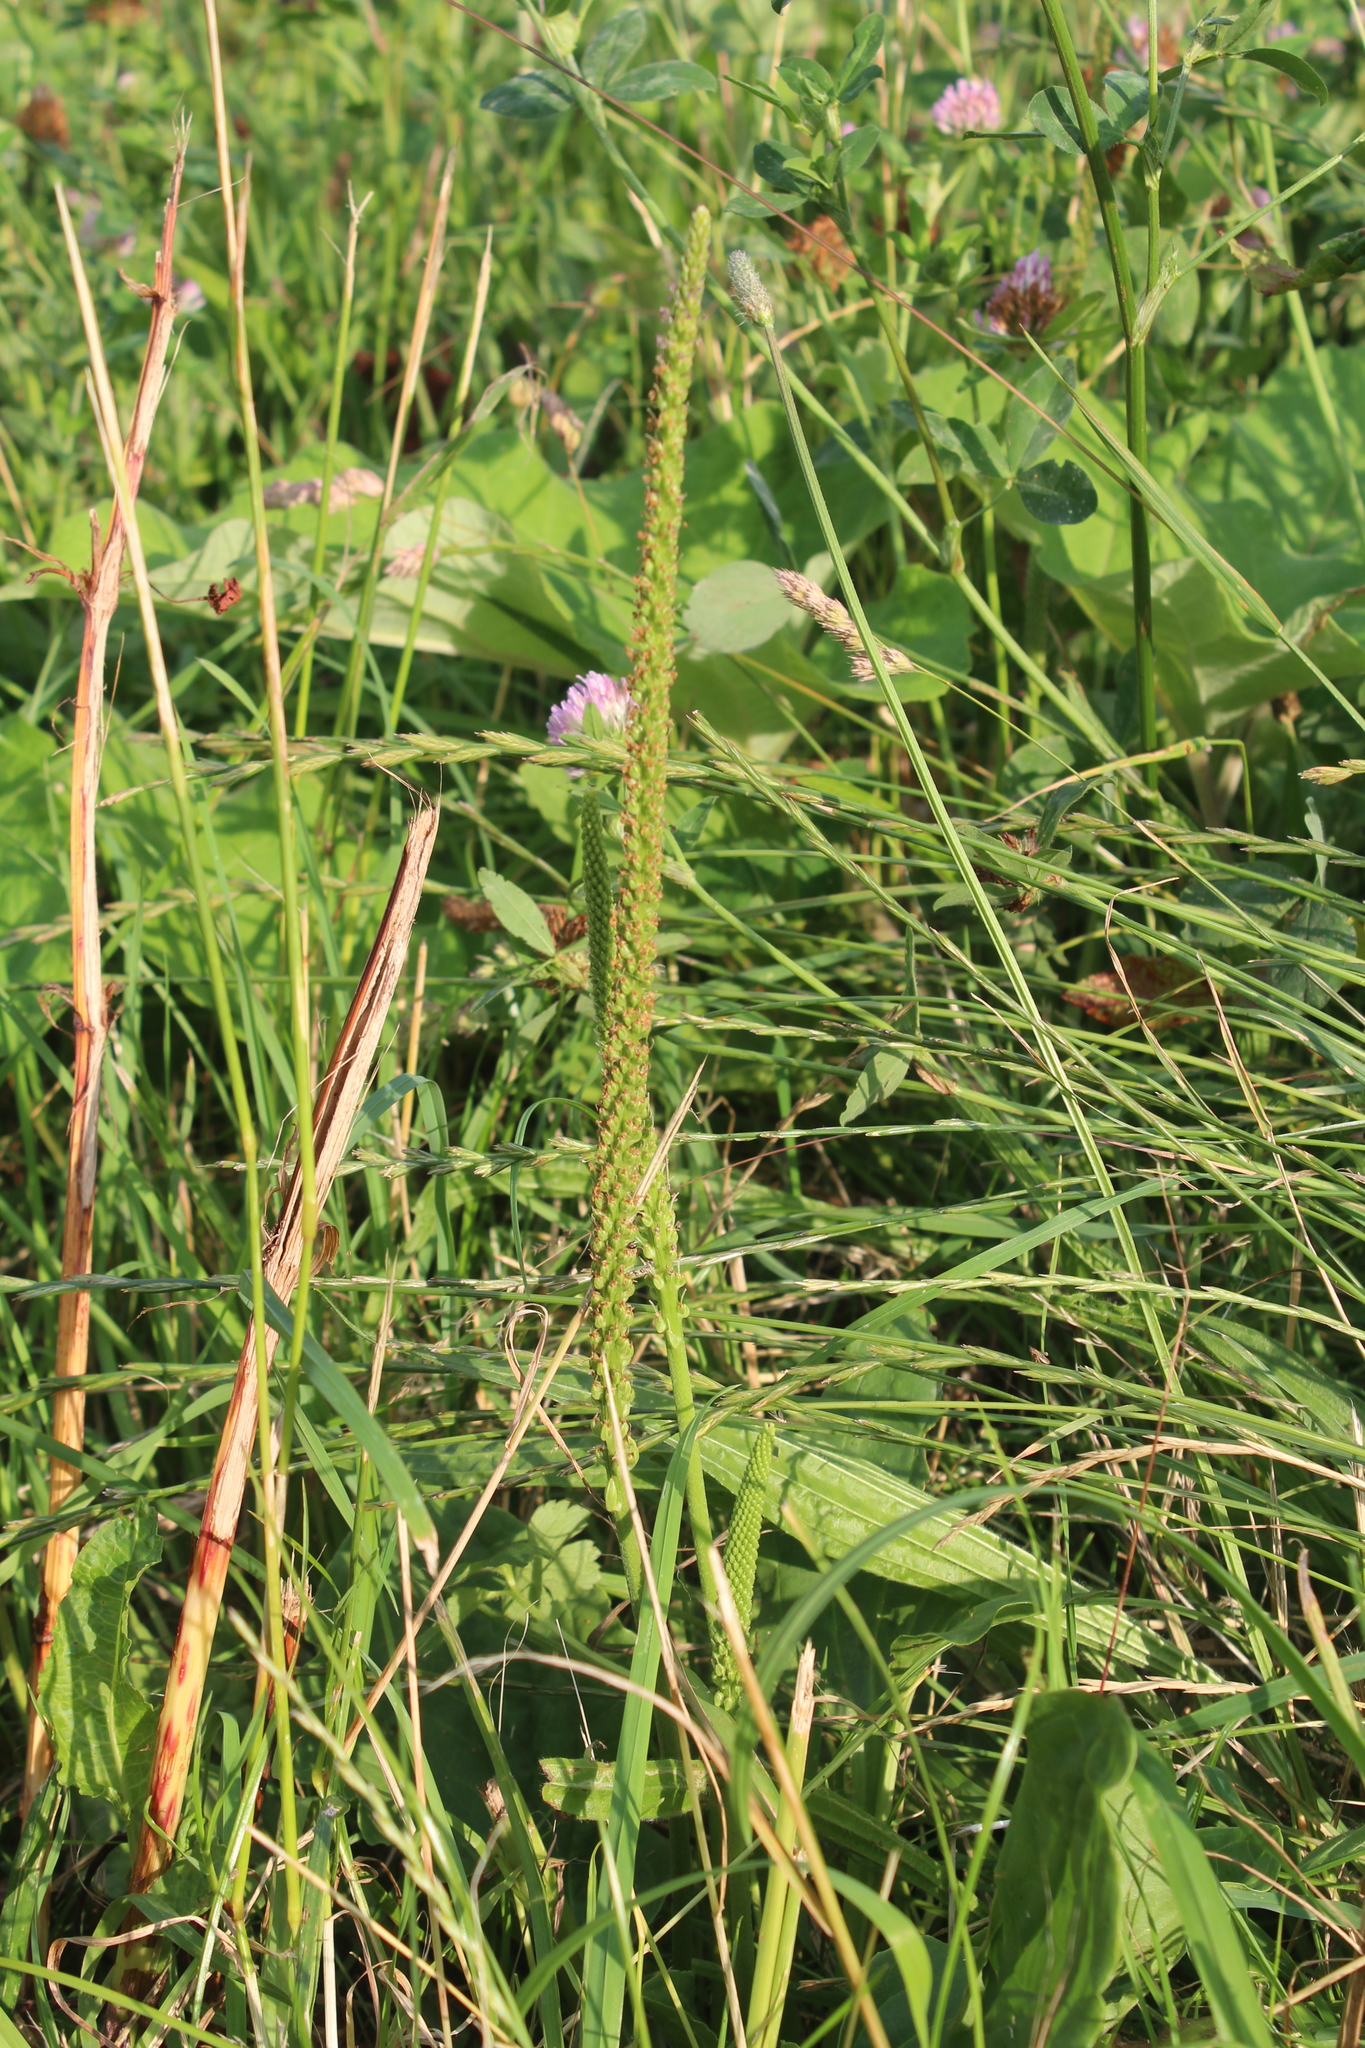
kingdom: Plantae
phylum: Tracheophyta
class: Magnoliopsida
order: Lamiales
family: Plantaginaceae
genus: Plantago
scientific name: Plantago major
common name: Common plantain
